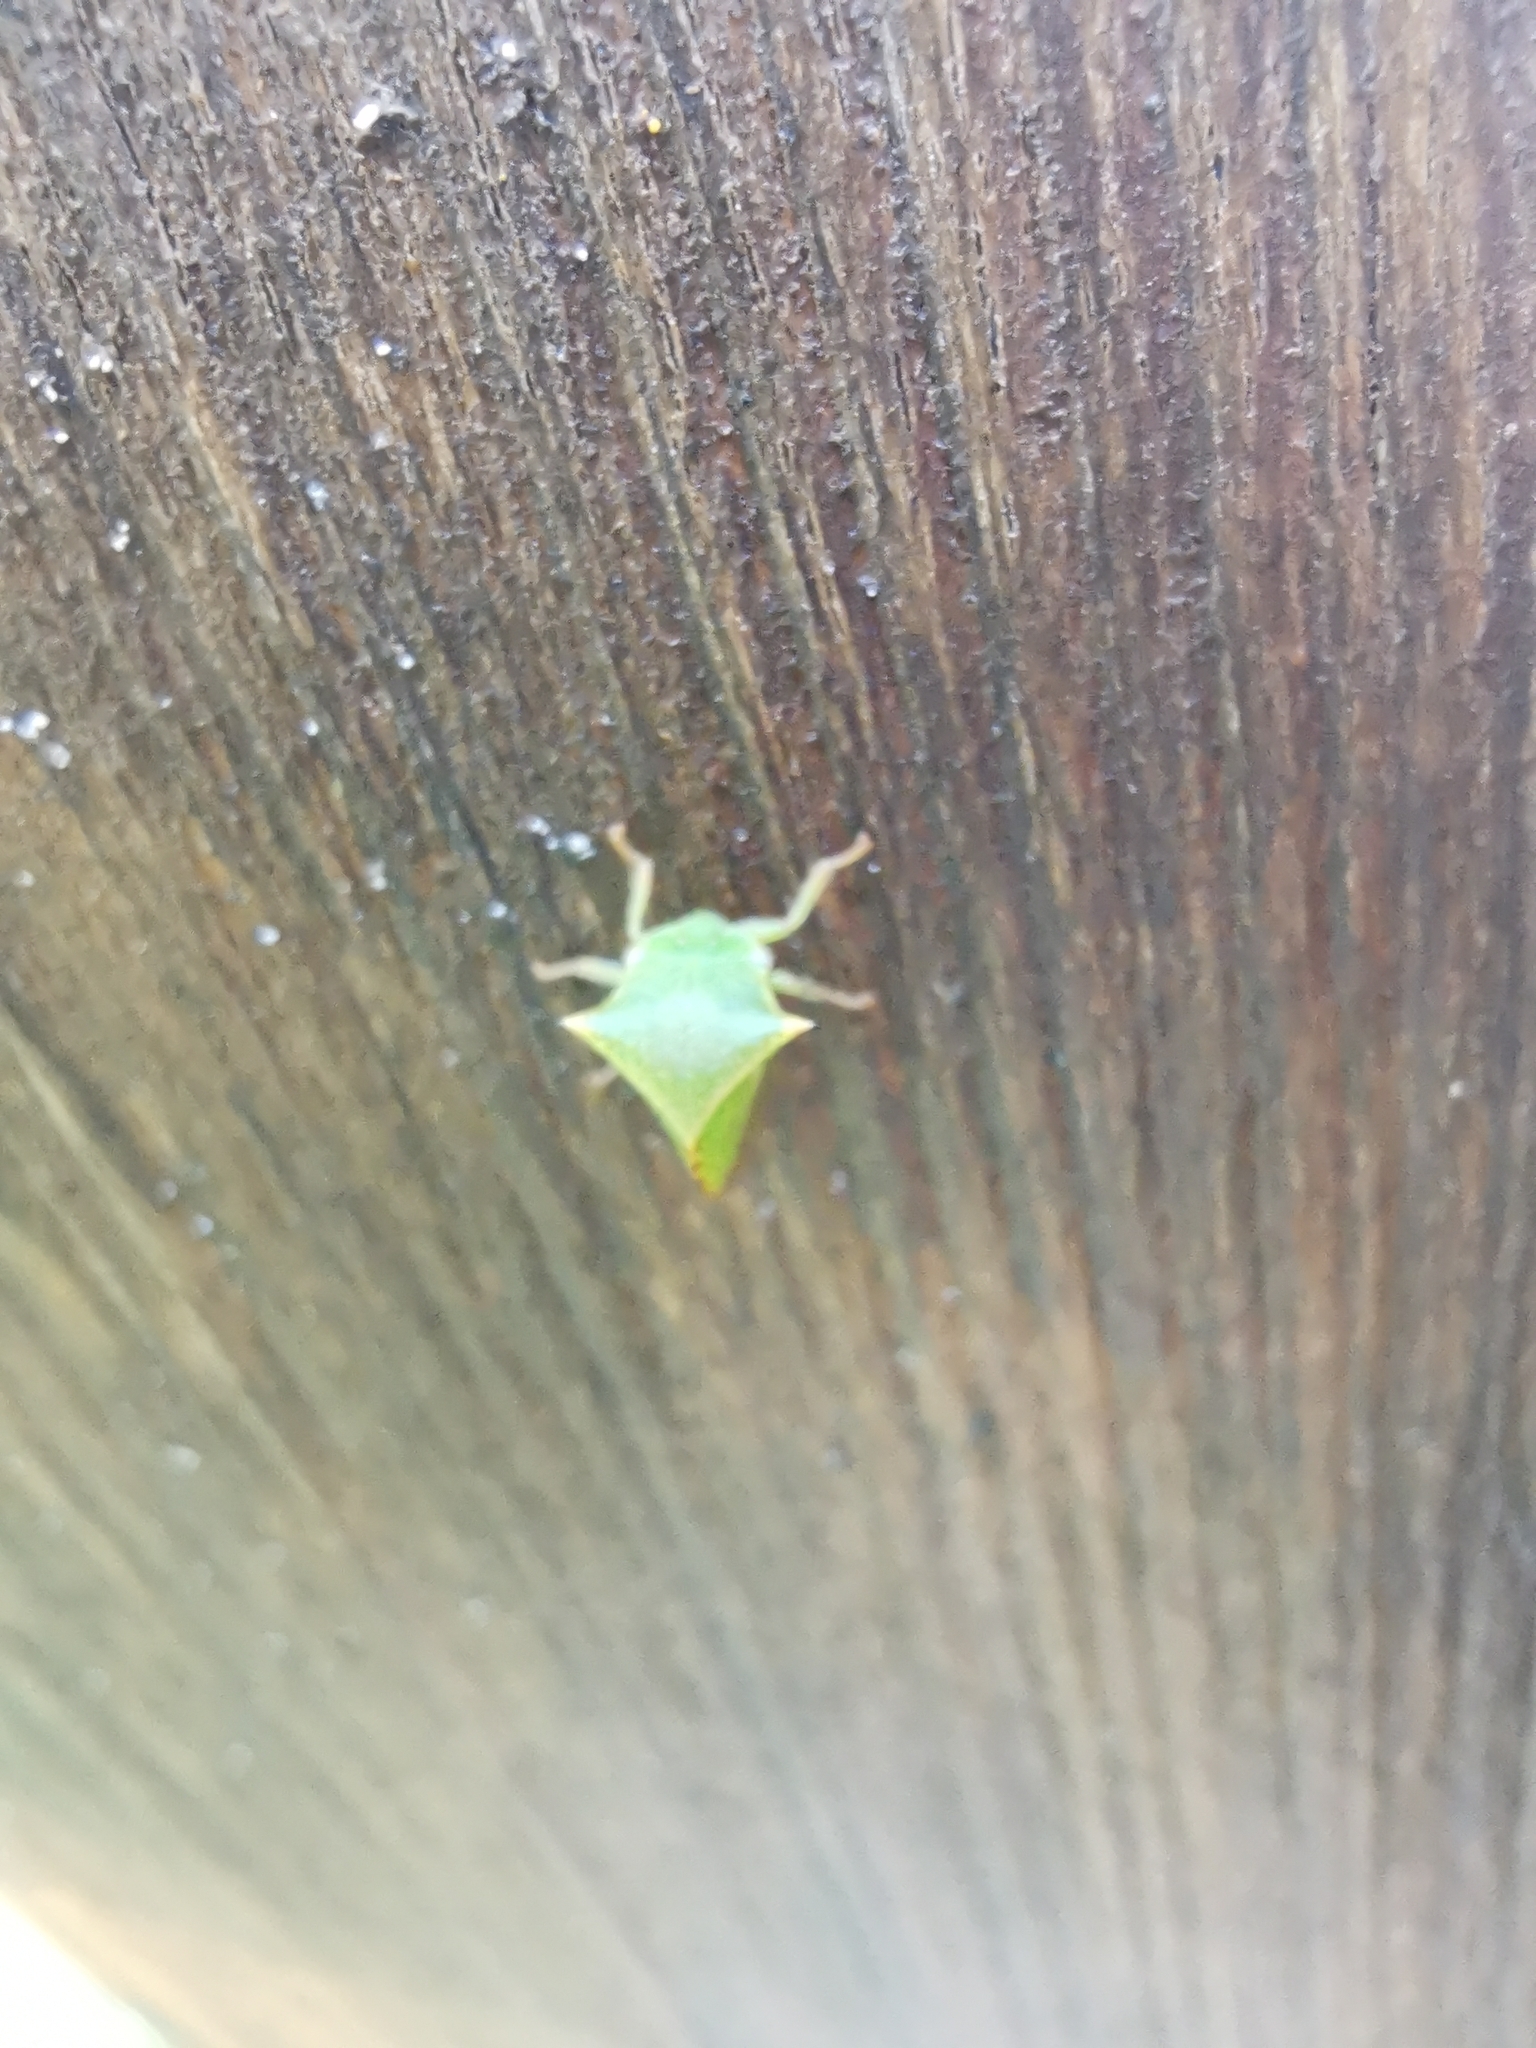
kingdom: Animalia
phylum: Arthropoda
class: Insecta
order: Hemiptera
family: Membracidae
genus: Stictocephala
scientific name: Stictocephala bisonia
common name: American buffalo treehopper
